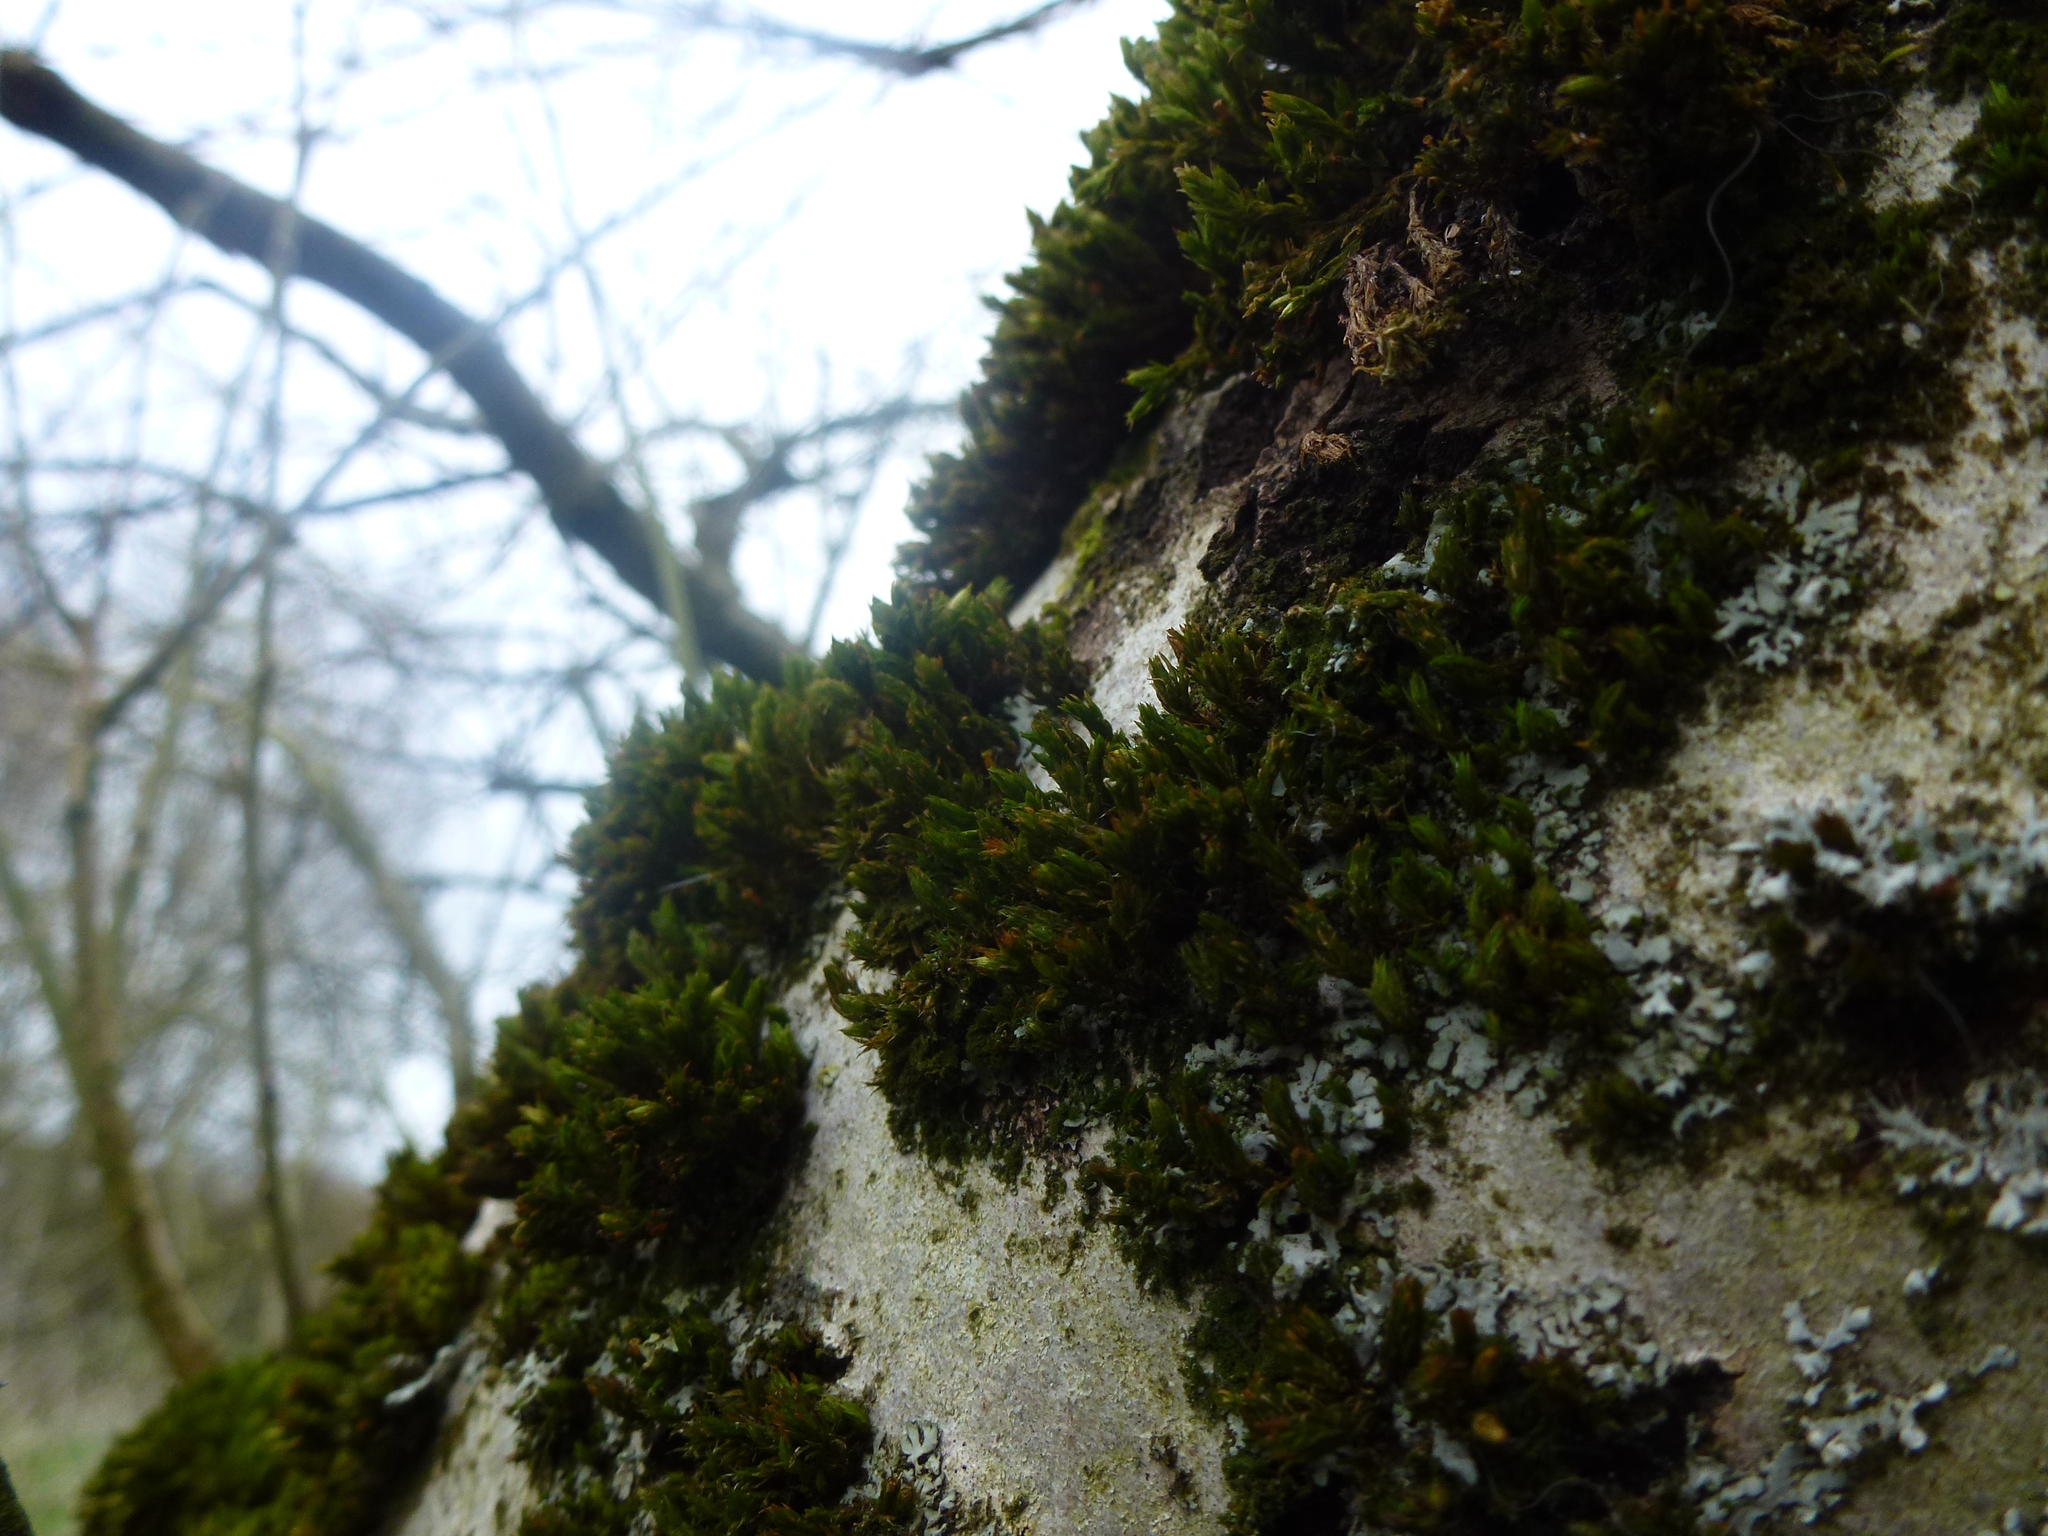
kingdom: Plantae
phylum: Bryophyta
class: Bryopsida
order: Orthotrichales
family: Orthotrichaceae
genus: Lewinskya
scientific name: Lewinskya affinis
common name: Wood bristle-moss
